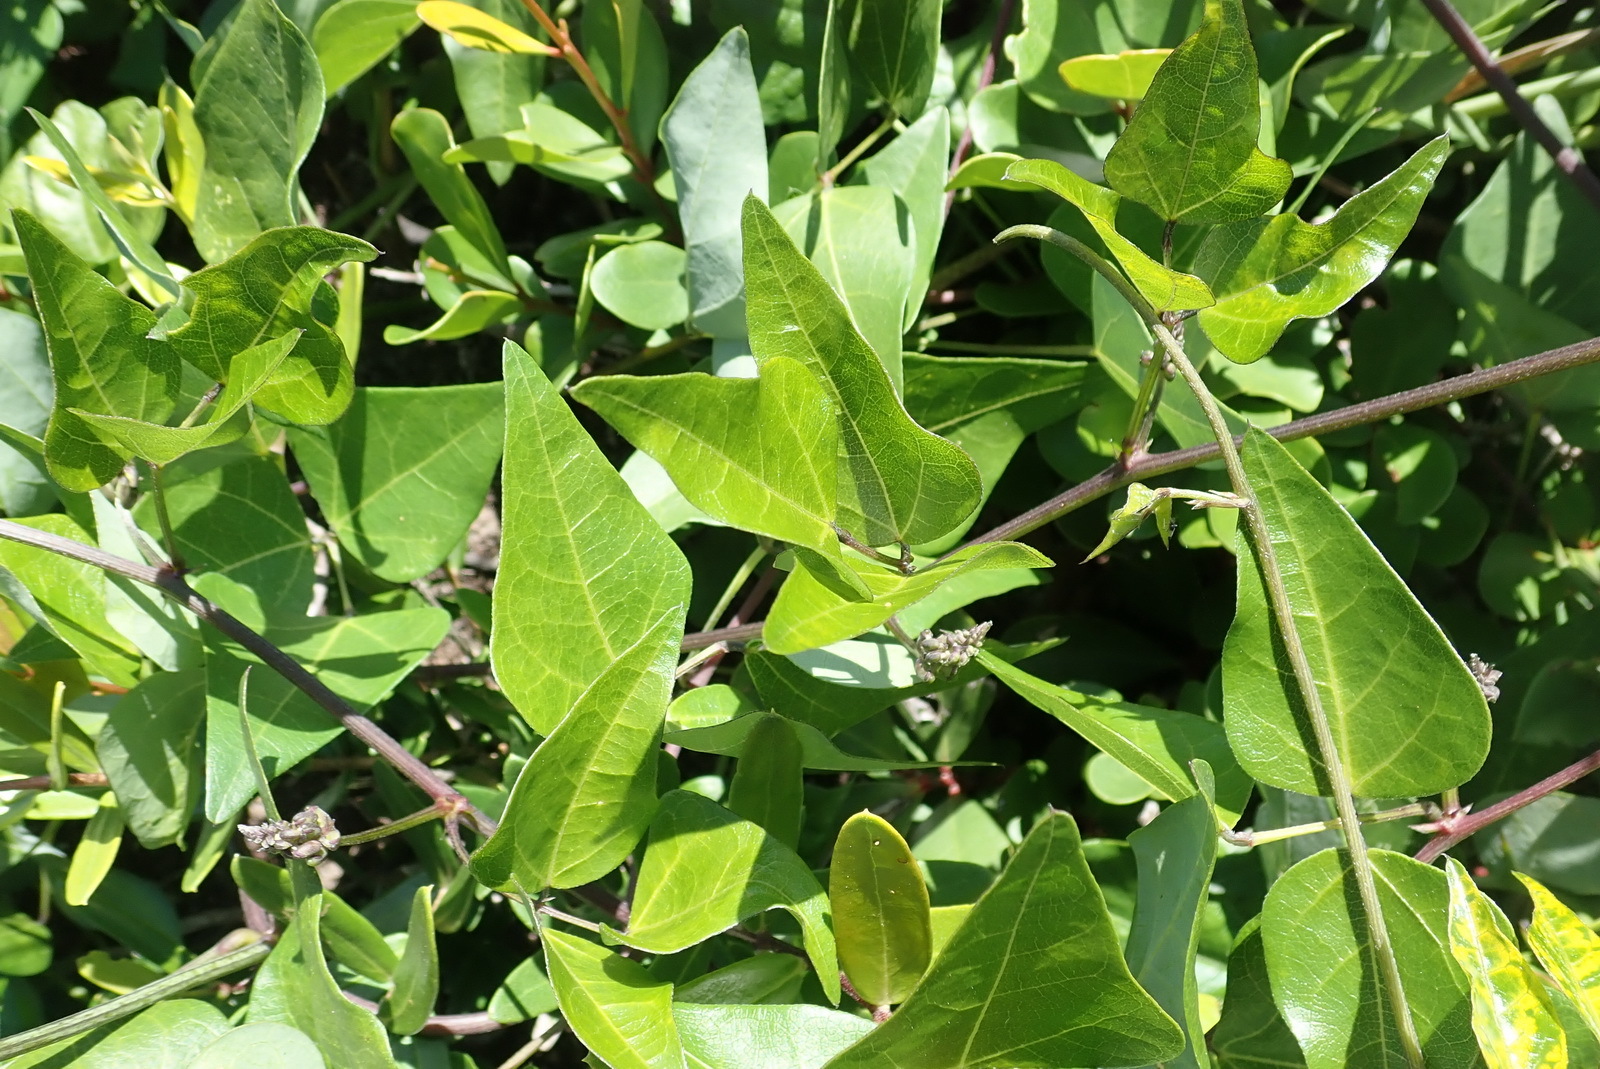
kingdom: Plantae
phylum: Tracheophyta
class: Magnoliopsida
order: Fabales
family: Fabaceae
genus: Dipogon
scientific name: Dipogon lignosus
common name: Okie bean
